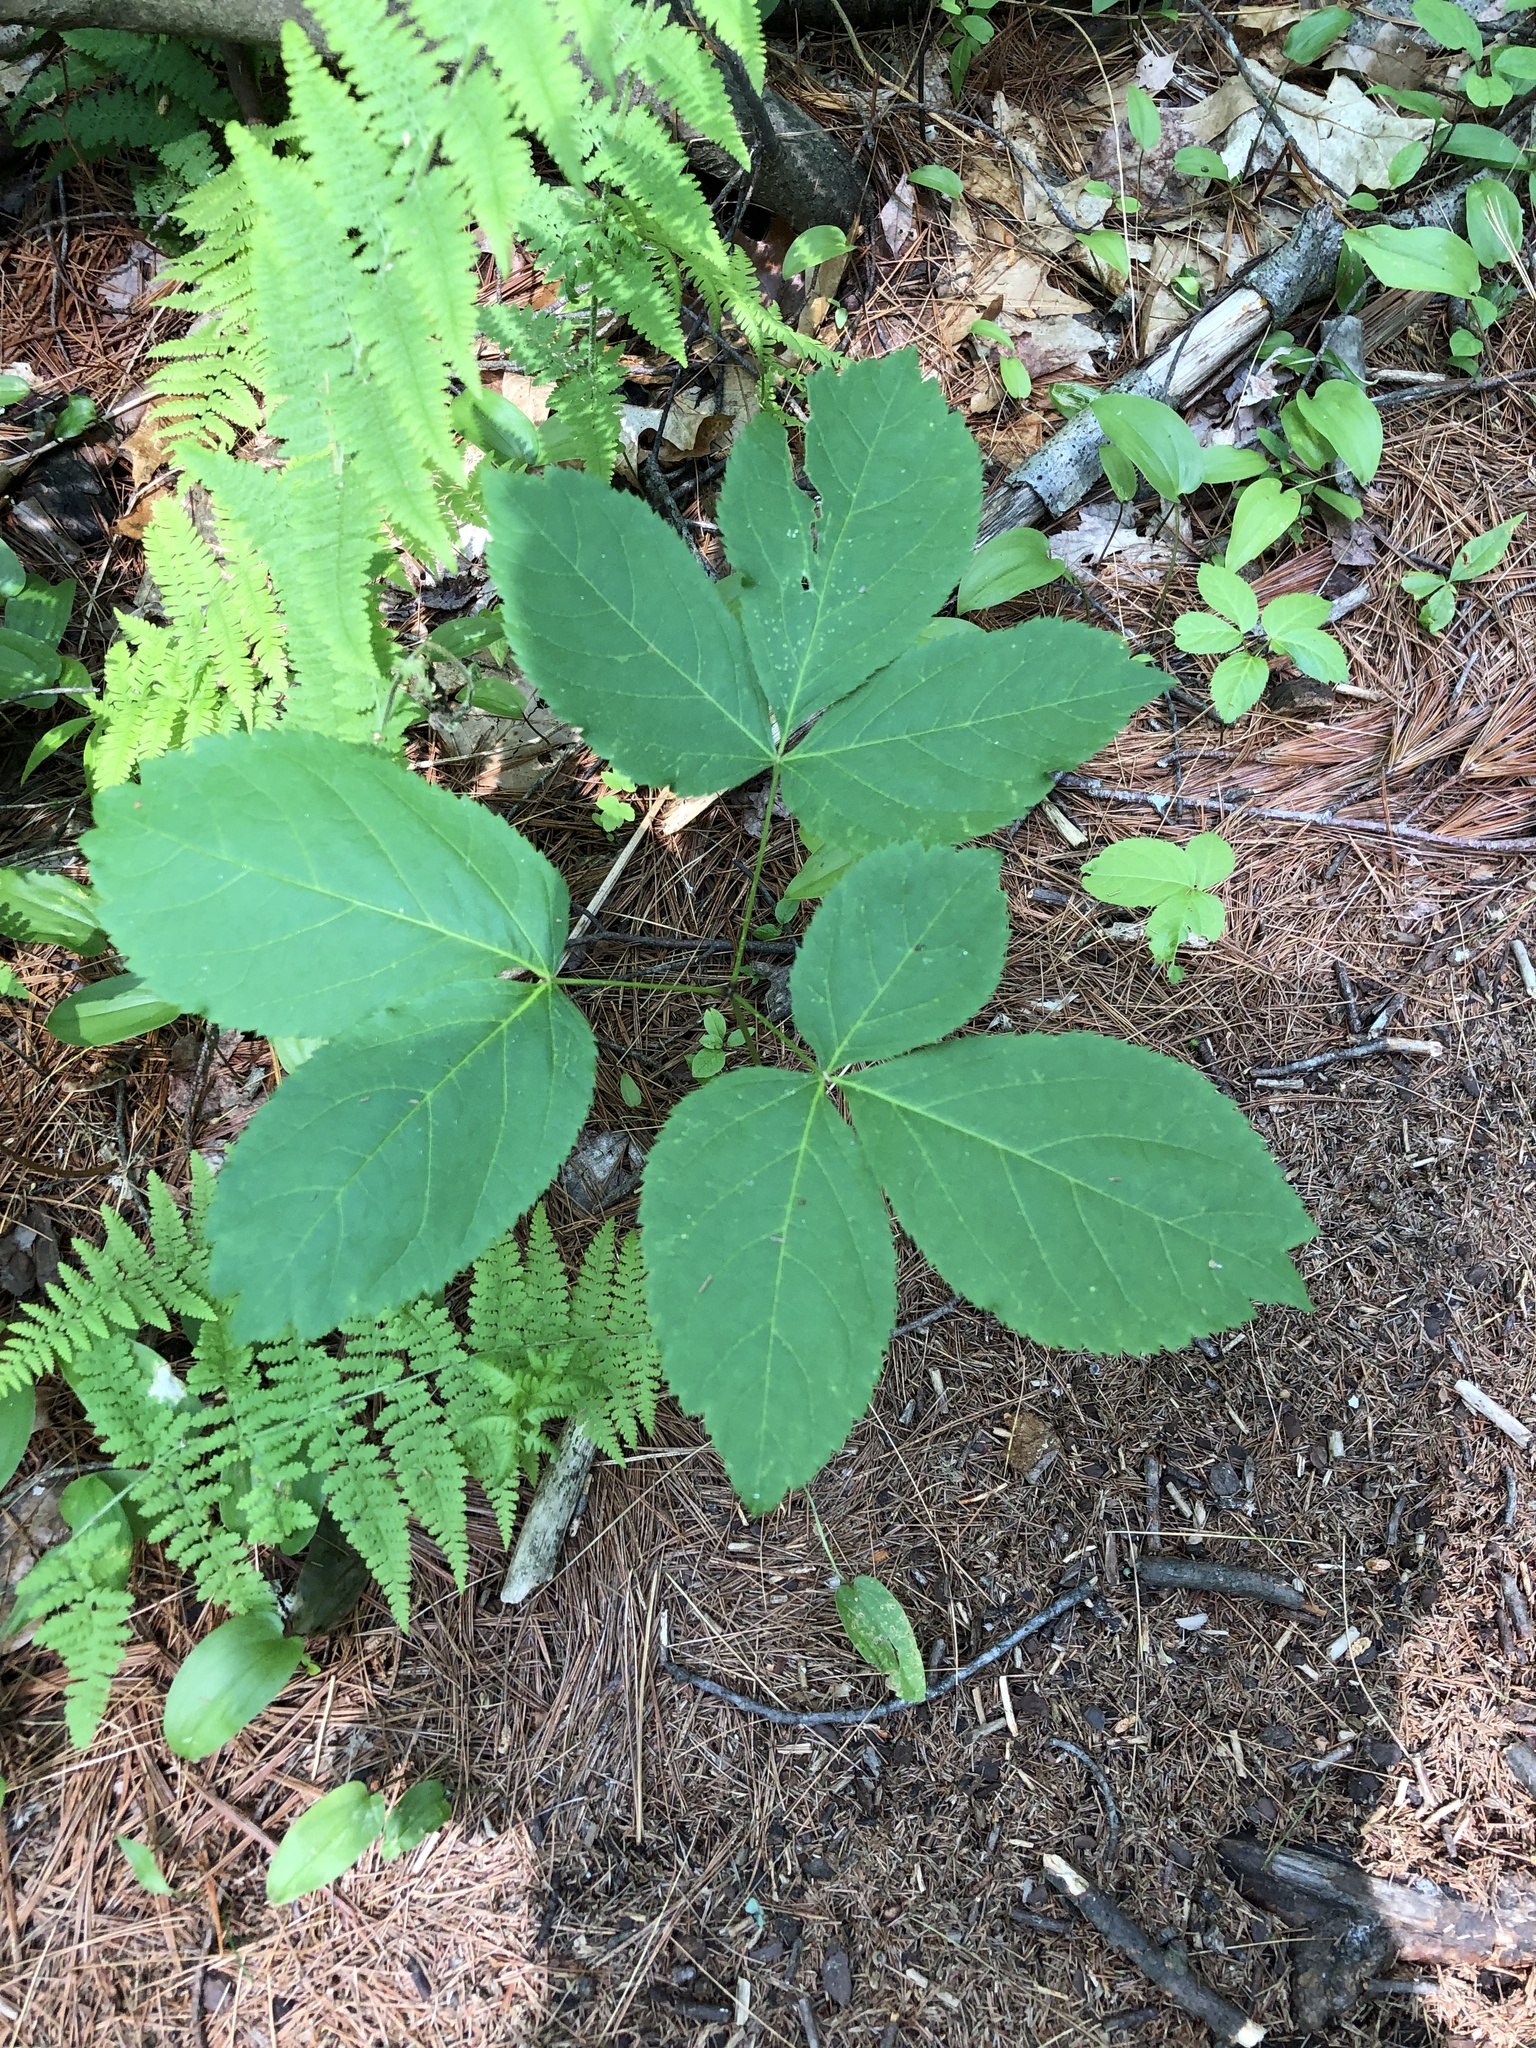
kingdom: Plantae
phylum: Tracheophyta
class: Magnoliopsida
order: Apiales
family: Araliaceae
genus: Aralia
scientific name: Aralia nudicaulis
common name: Wild sarsaparilla
